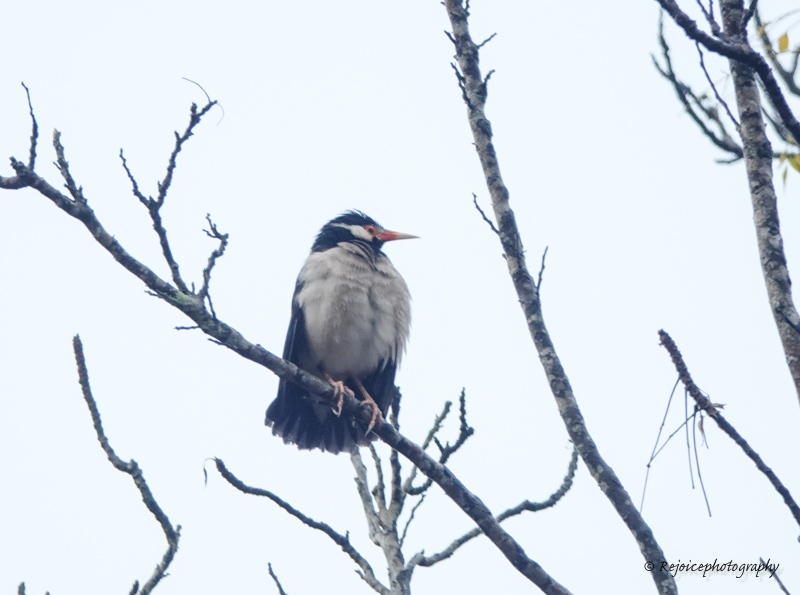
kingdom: Animalia
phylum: Chordata
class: Aves
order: Passeriformes
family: Sturnidae
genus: Gracupica
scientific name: Gracupica contra
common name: Pied myna
